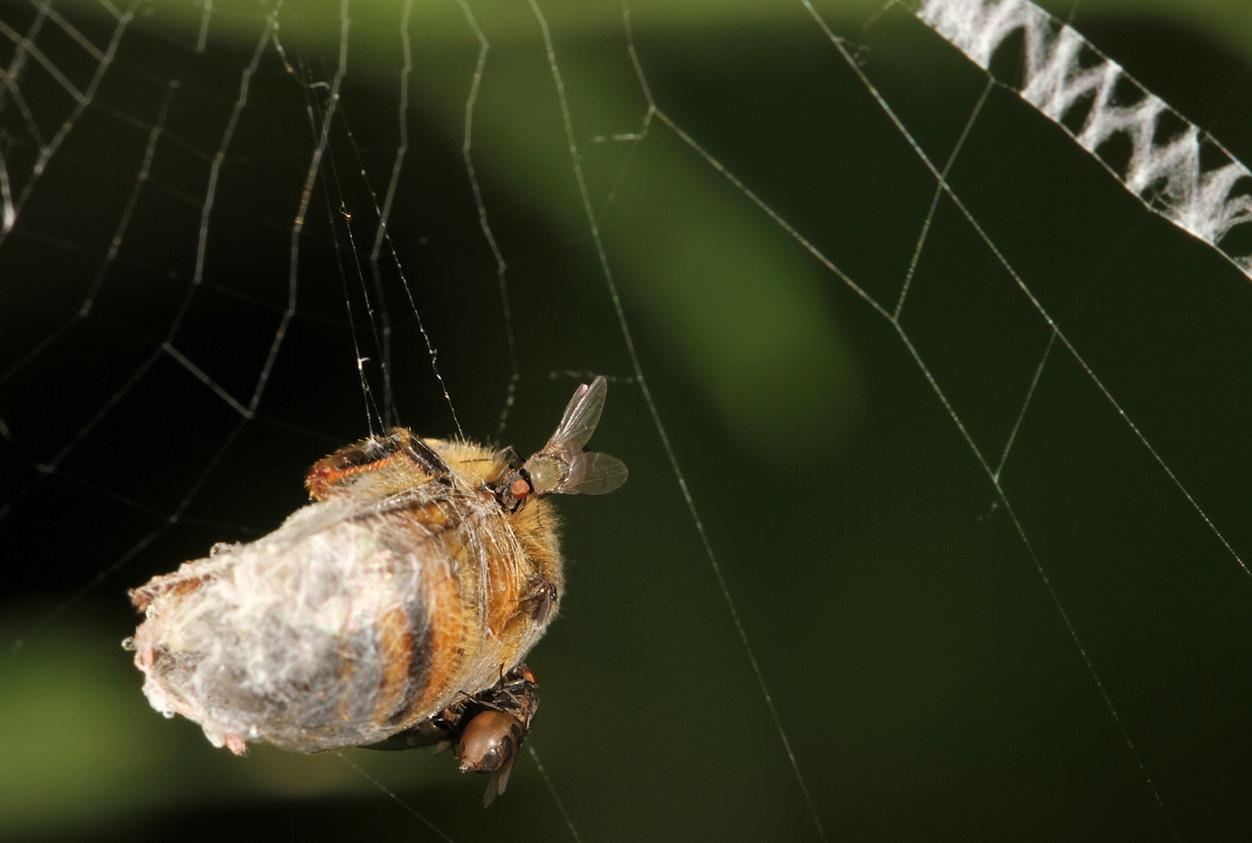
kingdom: Animalia
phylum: Arthropoda
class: Insecta
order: Hymenoptera
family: Apidae
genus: Apis
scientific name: Apis mellifera
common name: Honey bee
